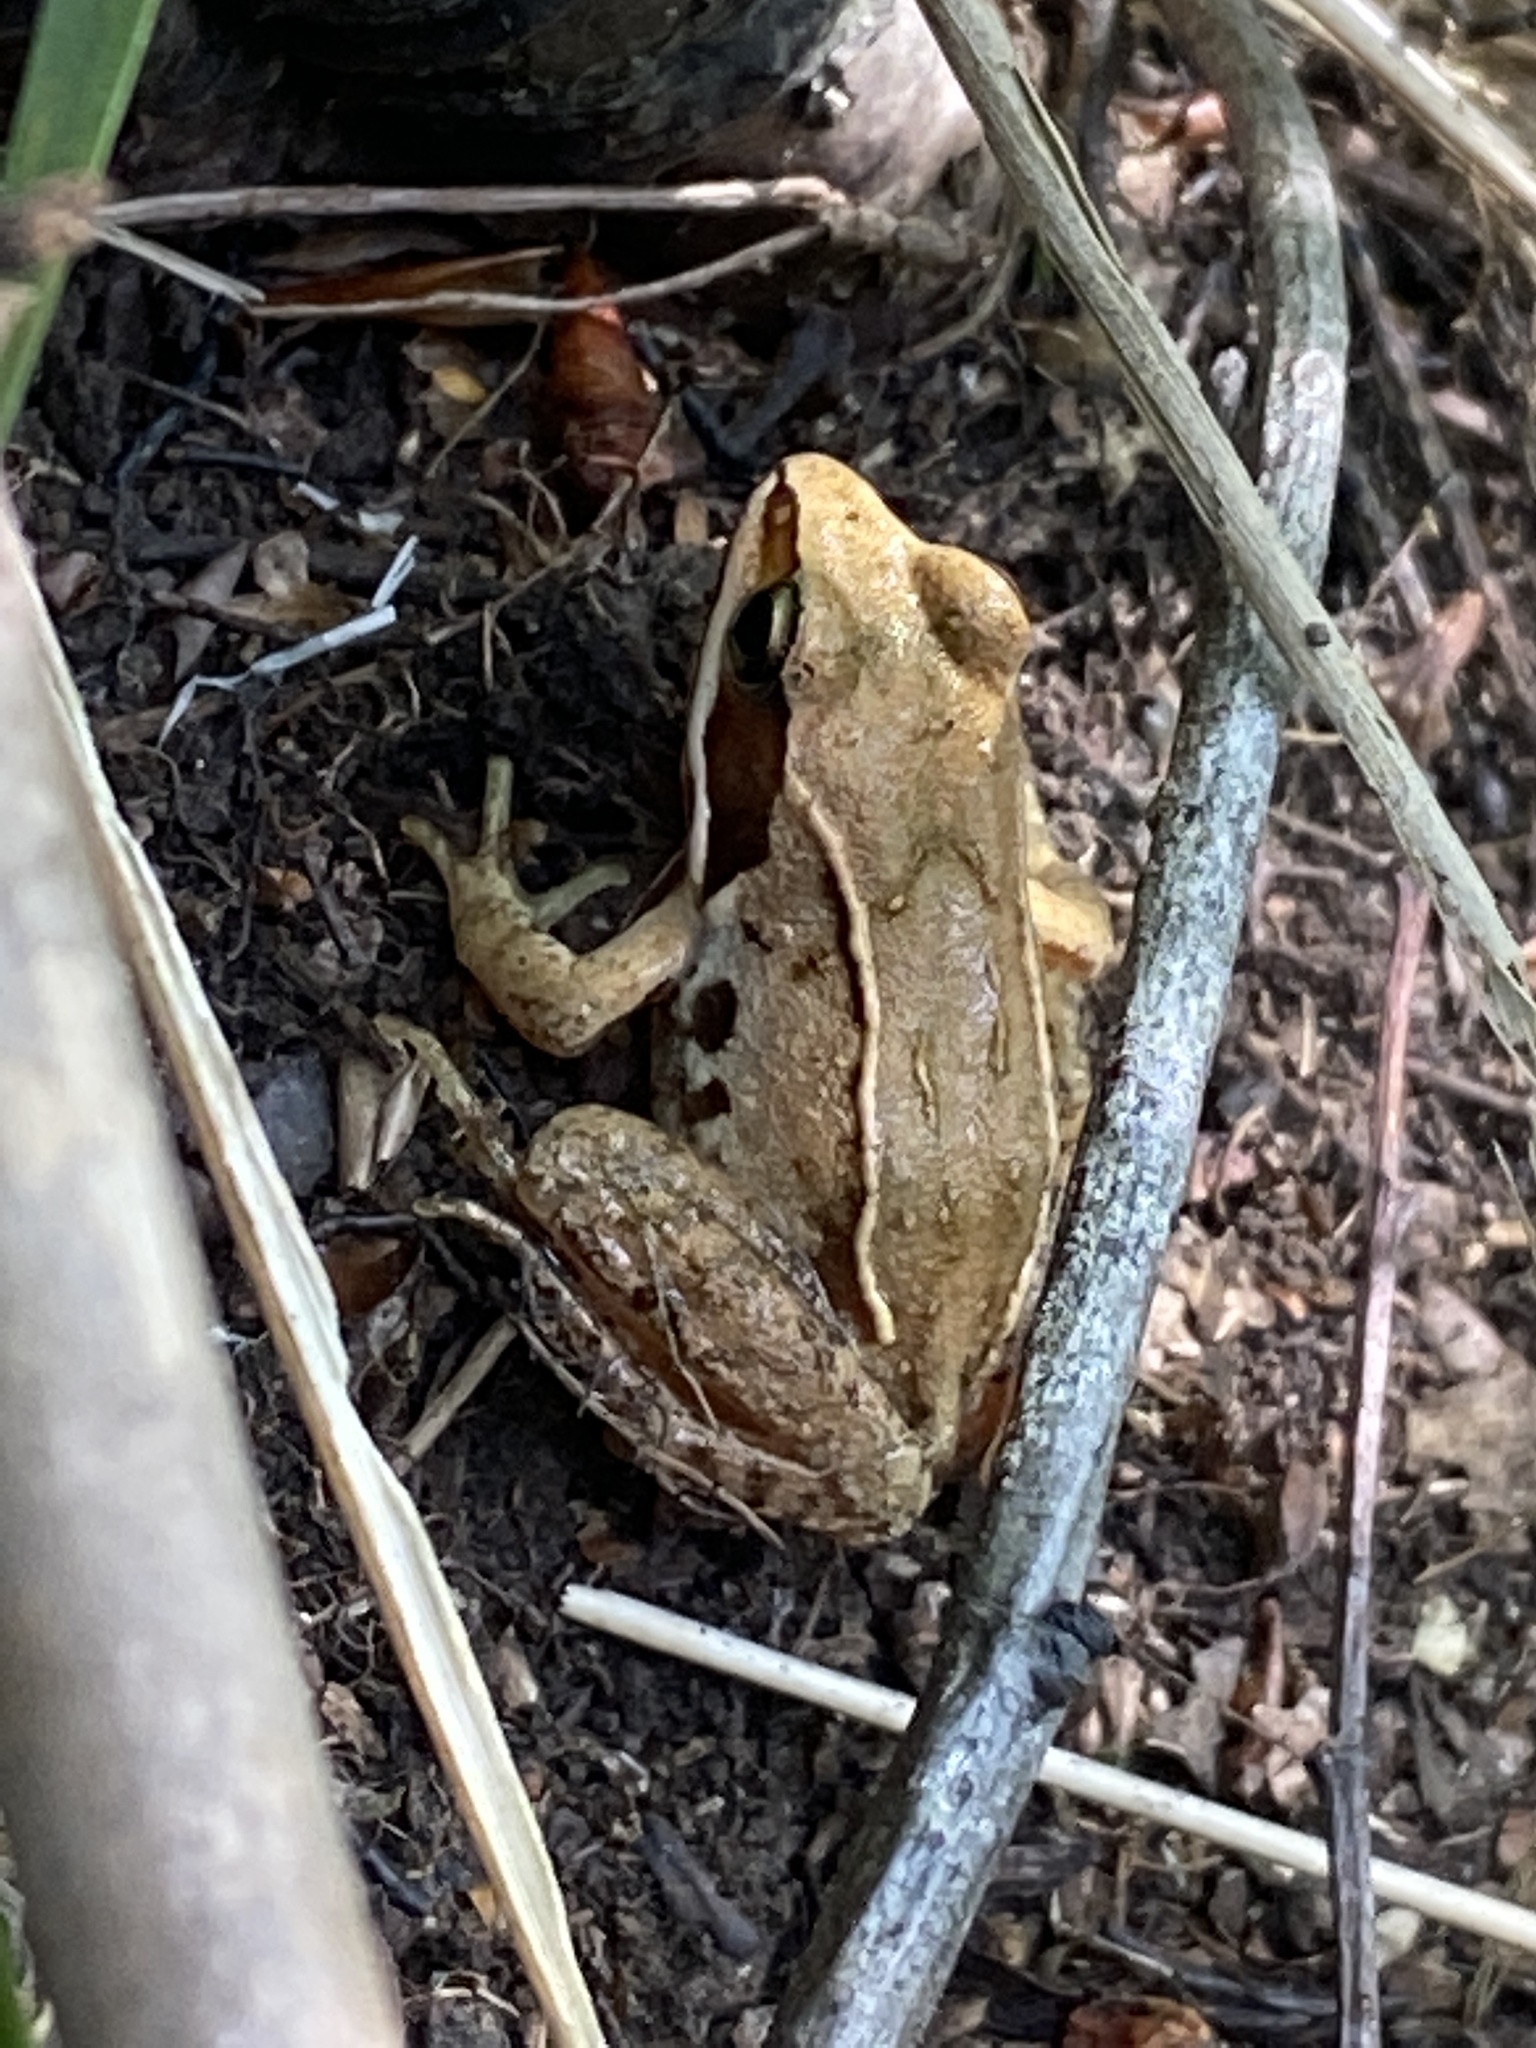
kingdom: Animalia
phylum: Chordata
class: Amphibia
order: Anura
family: Ranidae
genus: Rana
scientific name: Rana arvalis
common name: Moor frog
